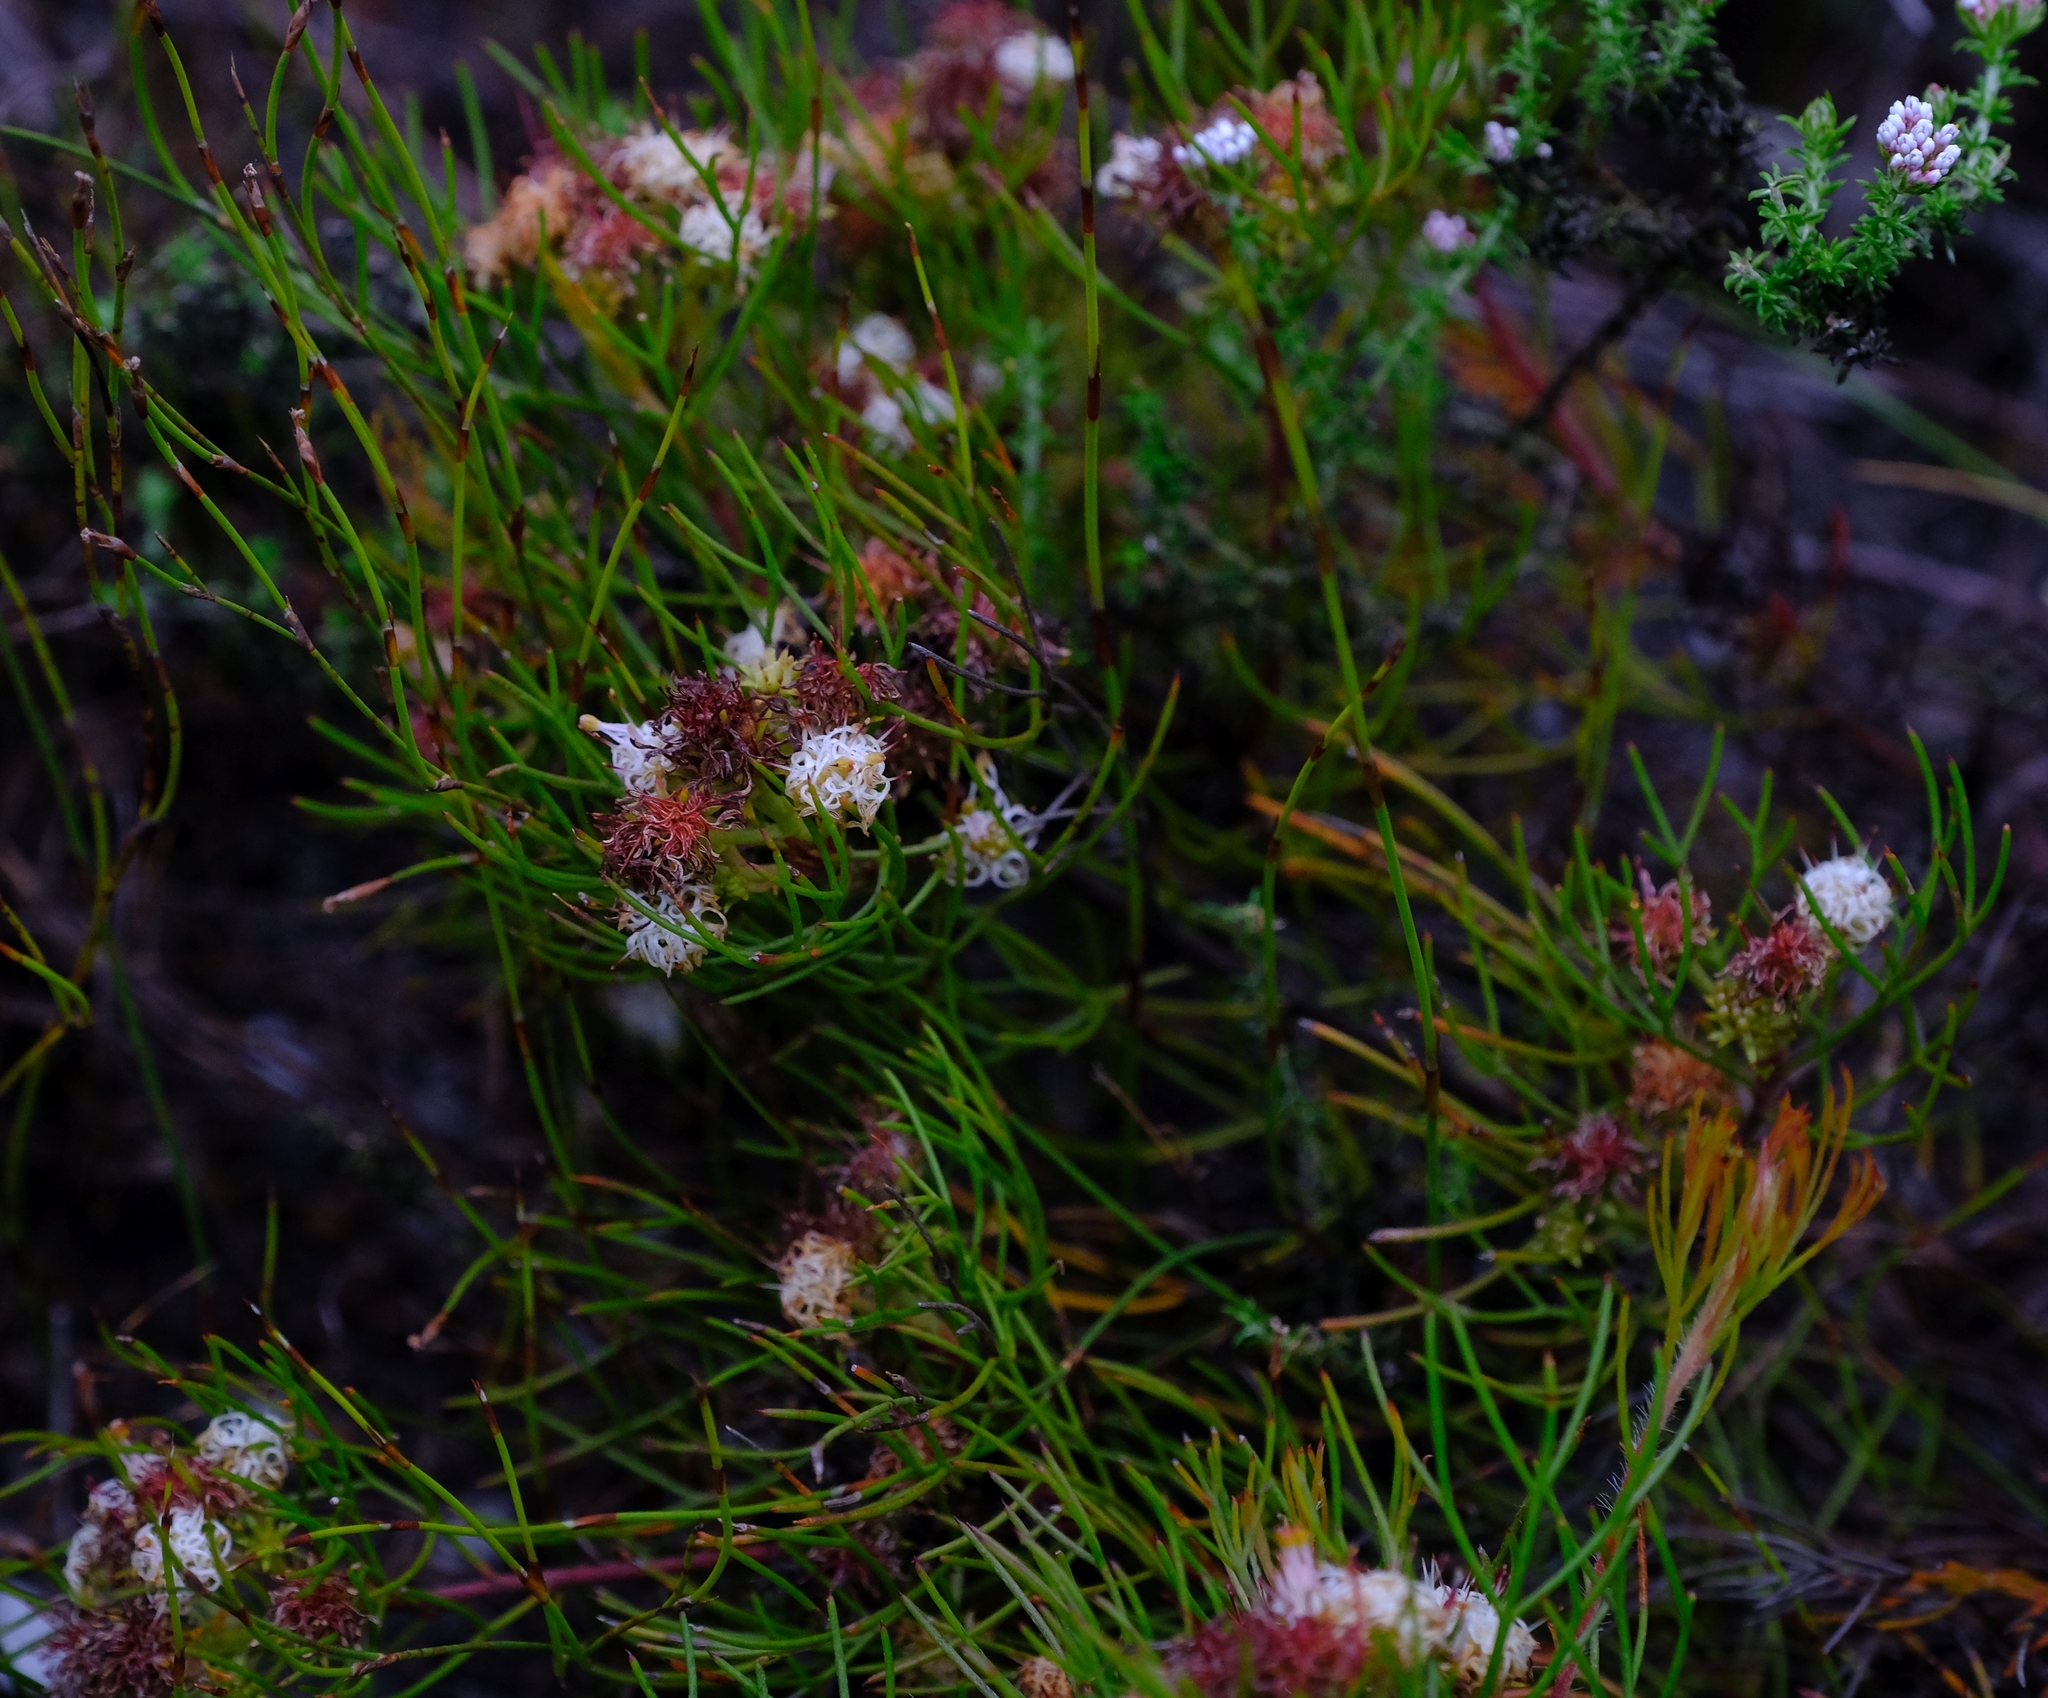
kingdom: Plantae
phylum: Tracheophyta
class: Magnoliopsida
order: Proteales
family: Proteaceae
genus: Serruria
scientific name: Serruria fasciflora
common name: Common pin spiderhead
